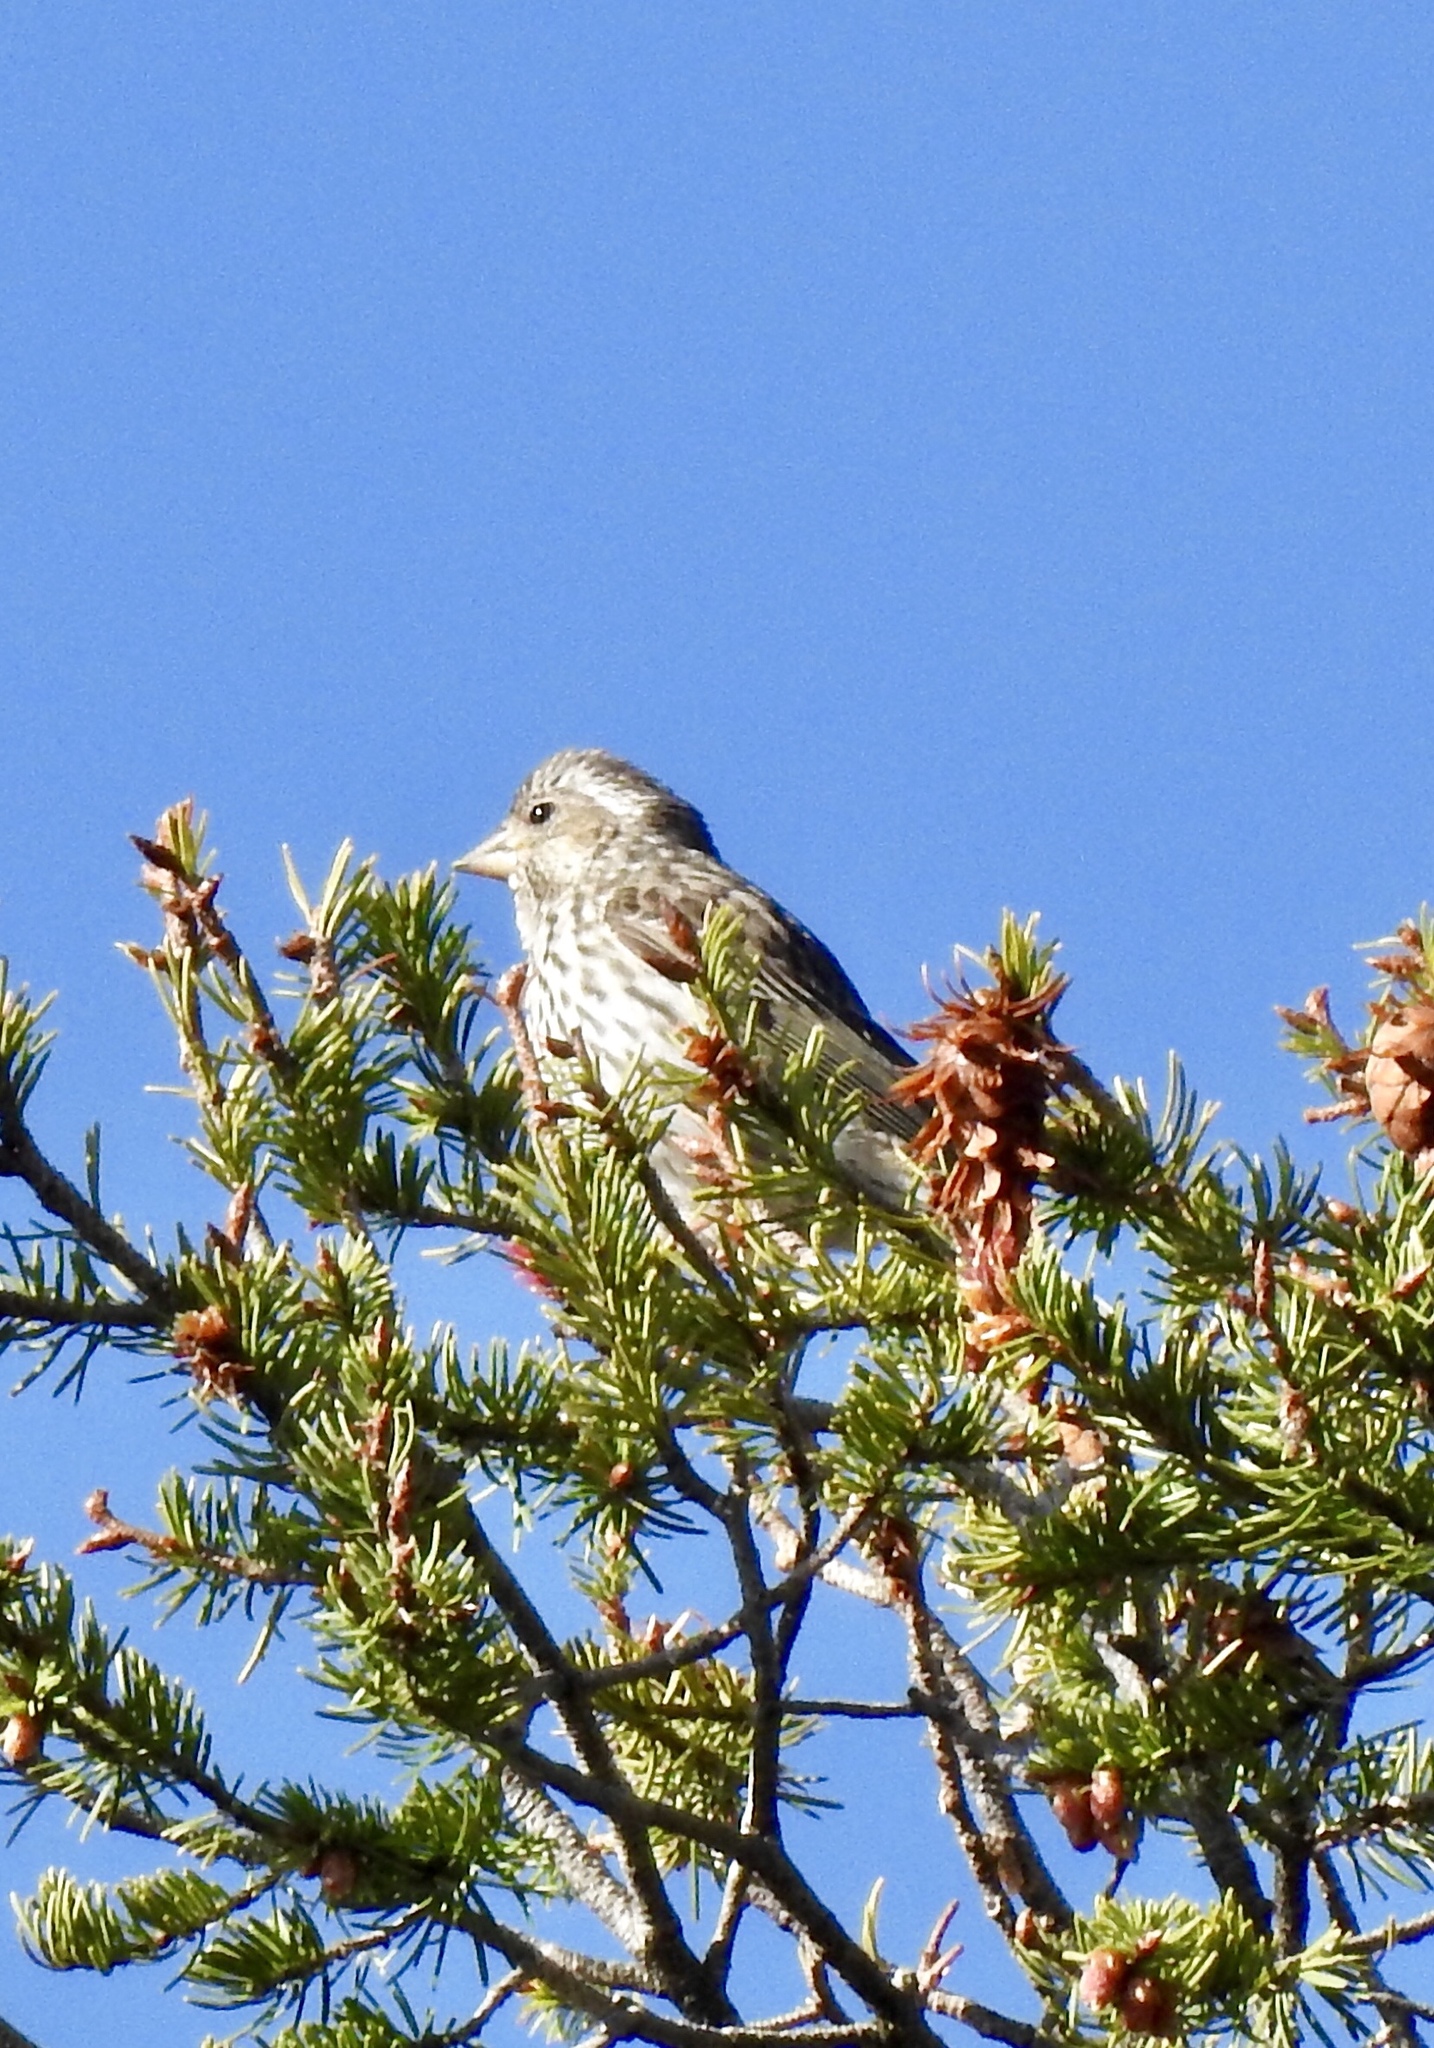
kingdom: Animalia
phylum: Chordata
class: Aves
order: Passeriformes
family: Fringillidae
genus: Haemorhous
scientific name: Haemorhous cassinii
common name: Cassin's finch
